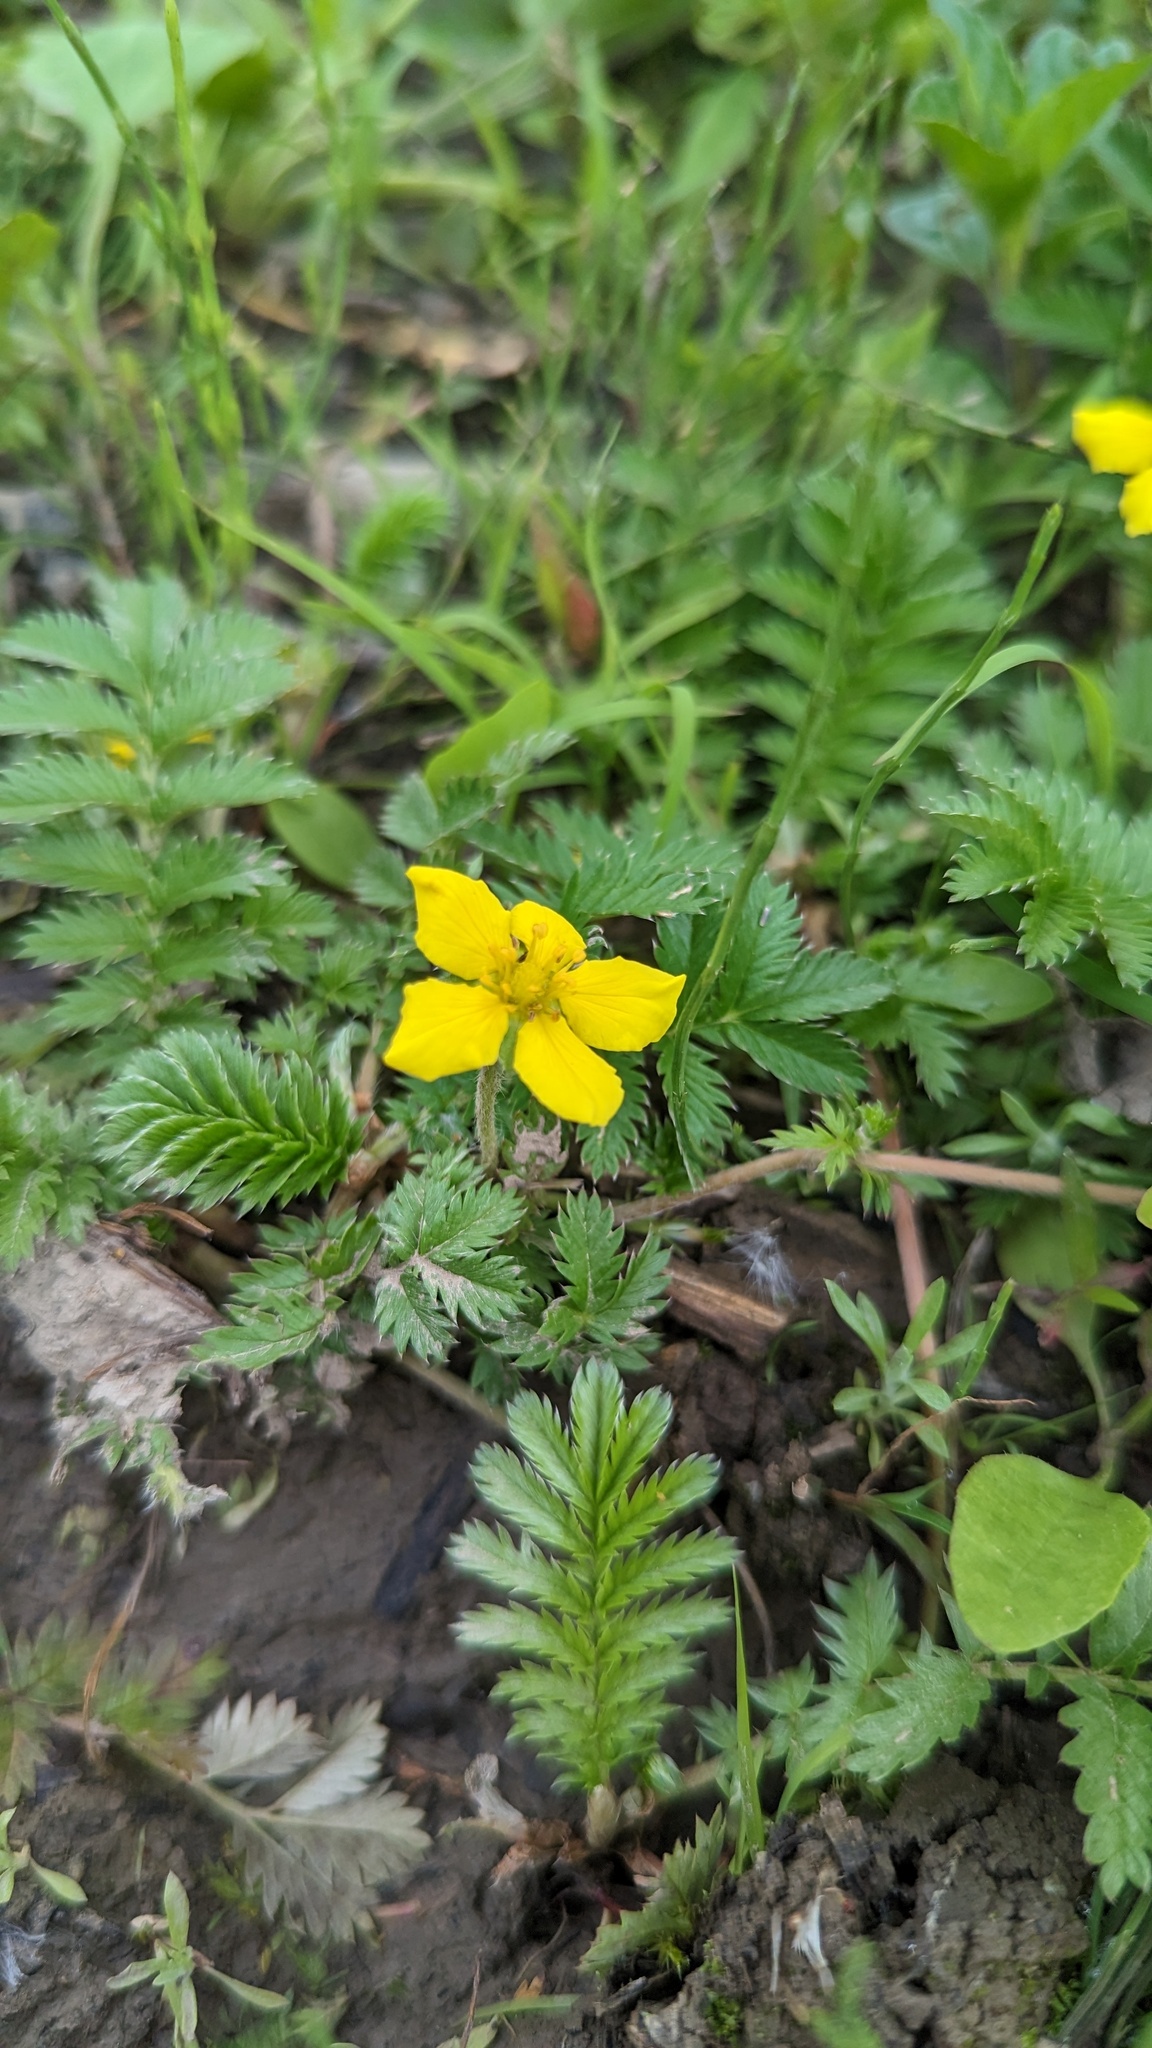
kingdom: Plantae
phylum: Tracheophyta
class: Magnoliopsida
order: Rosales
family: Rosaceae
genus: Argentina
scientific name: Argentina anserina
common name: Common silverweed
